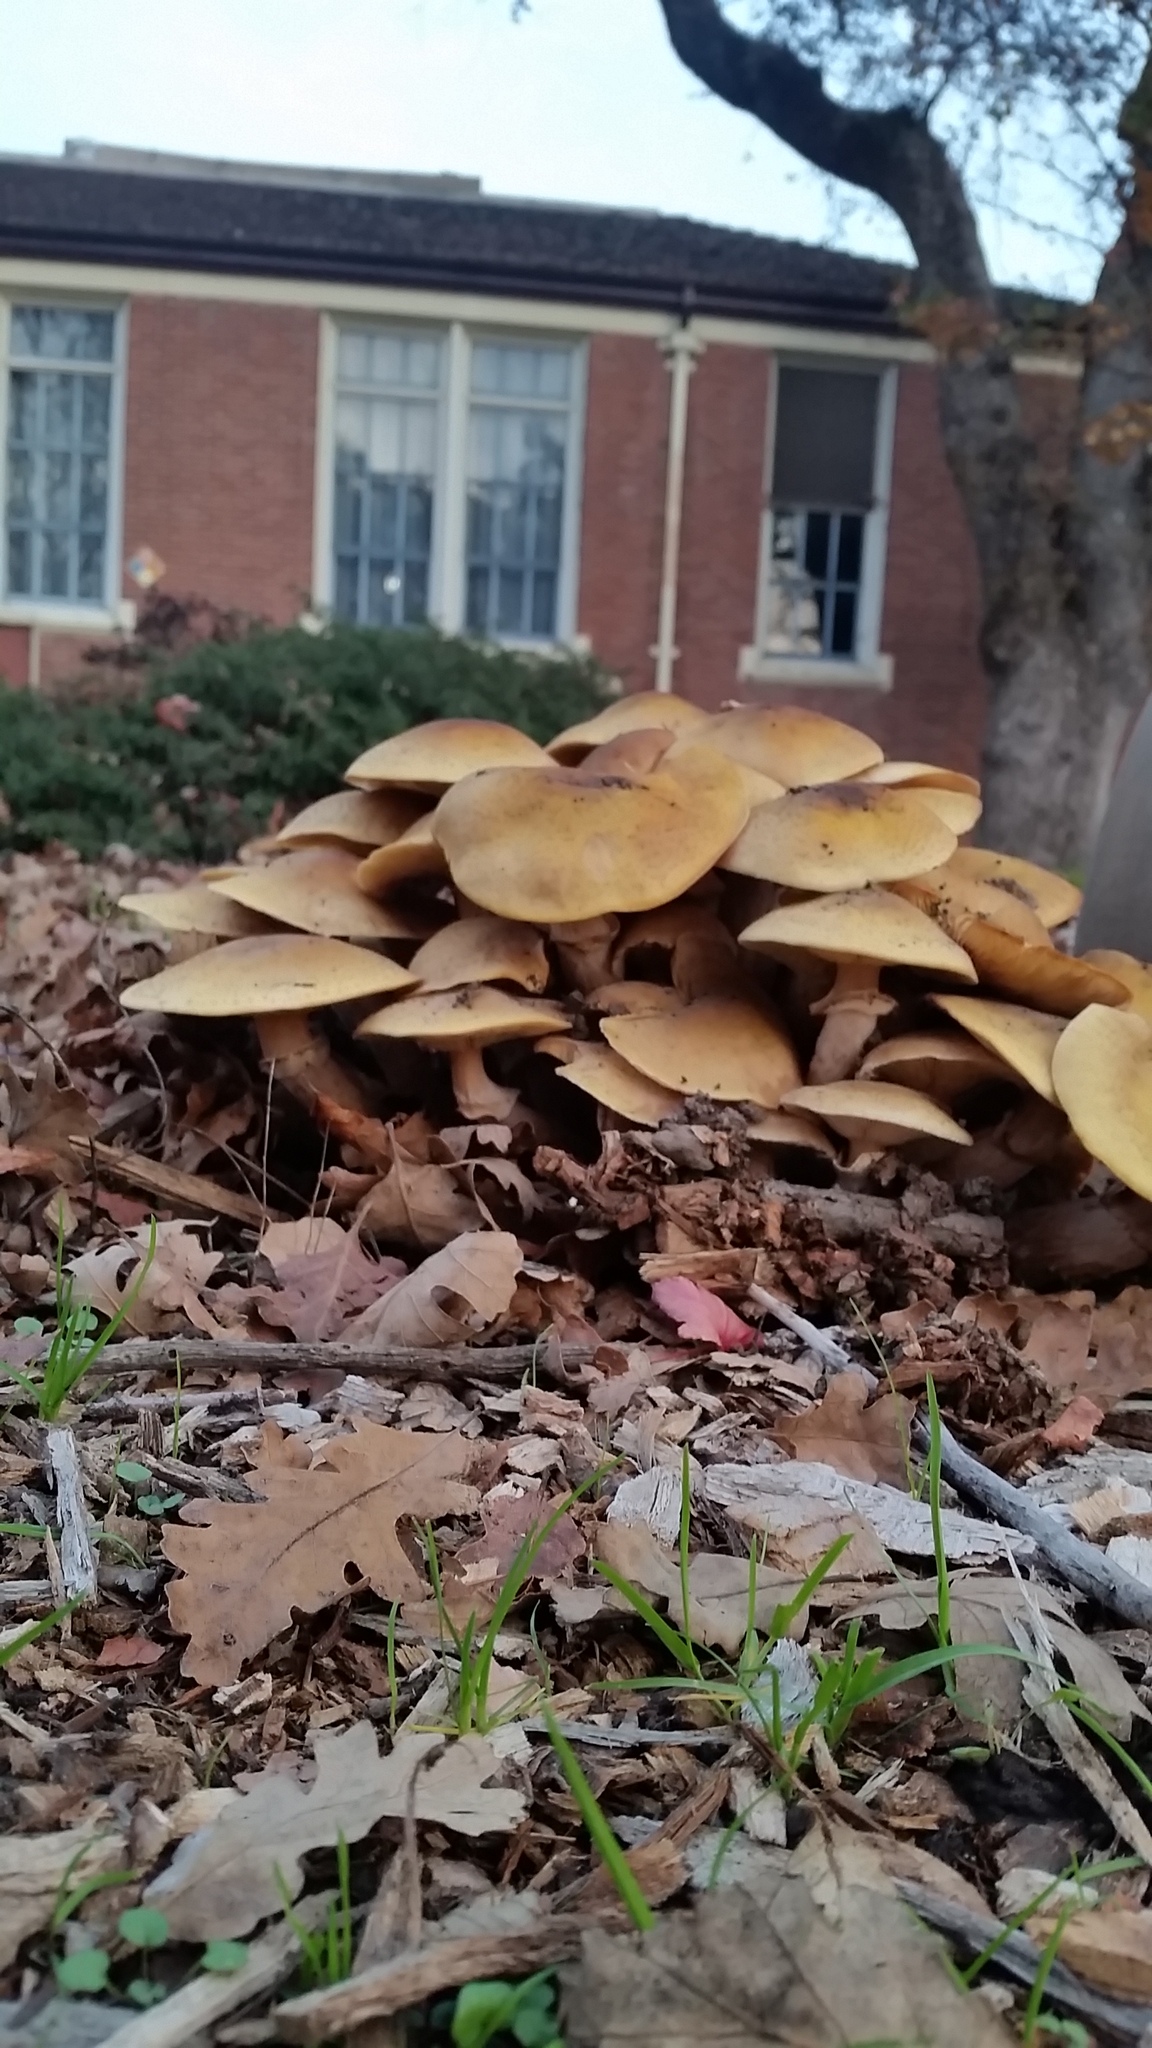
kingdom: Fungi
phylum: Basidiomycota
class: Agaricomycetes
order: Agaricales
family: Physalacriaceae
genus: Armillaria
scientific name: Armillaria mellea
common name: Honey fungus
